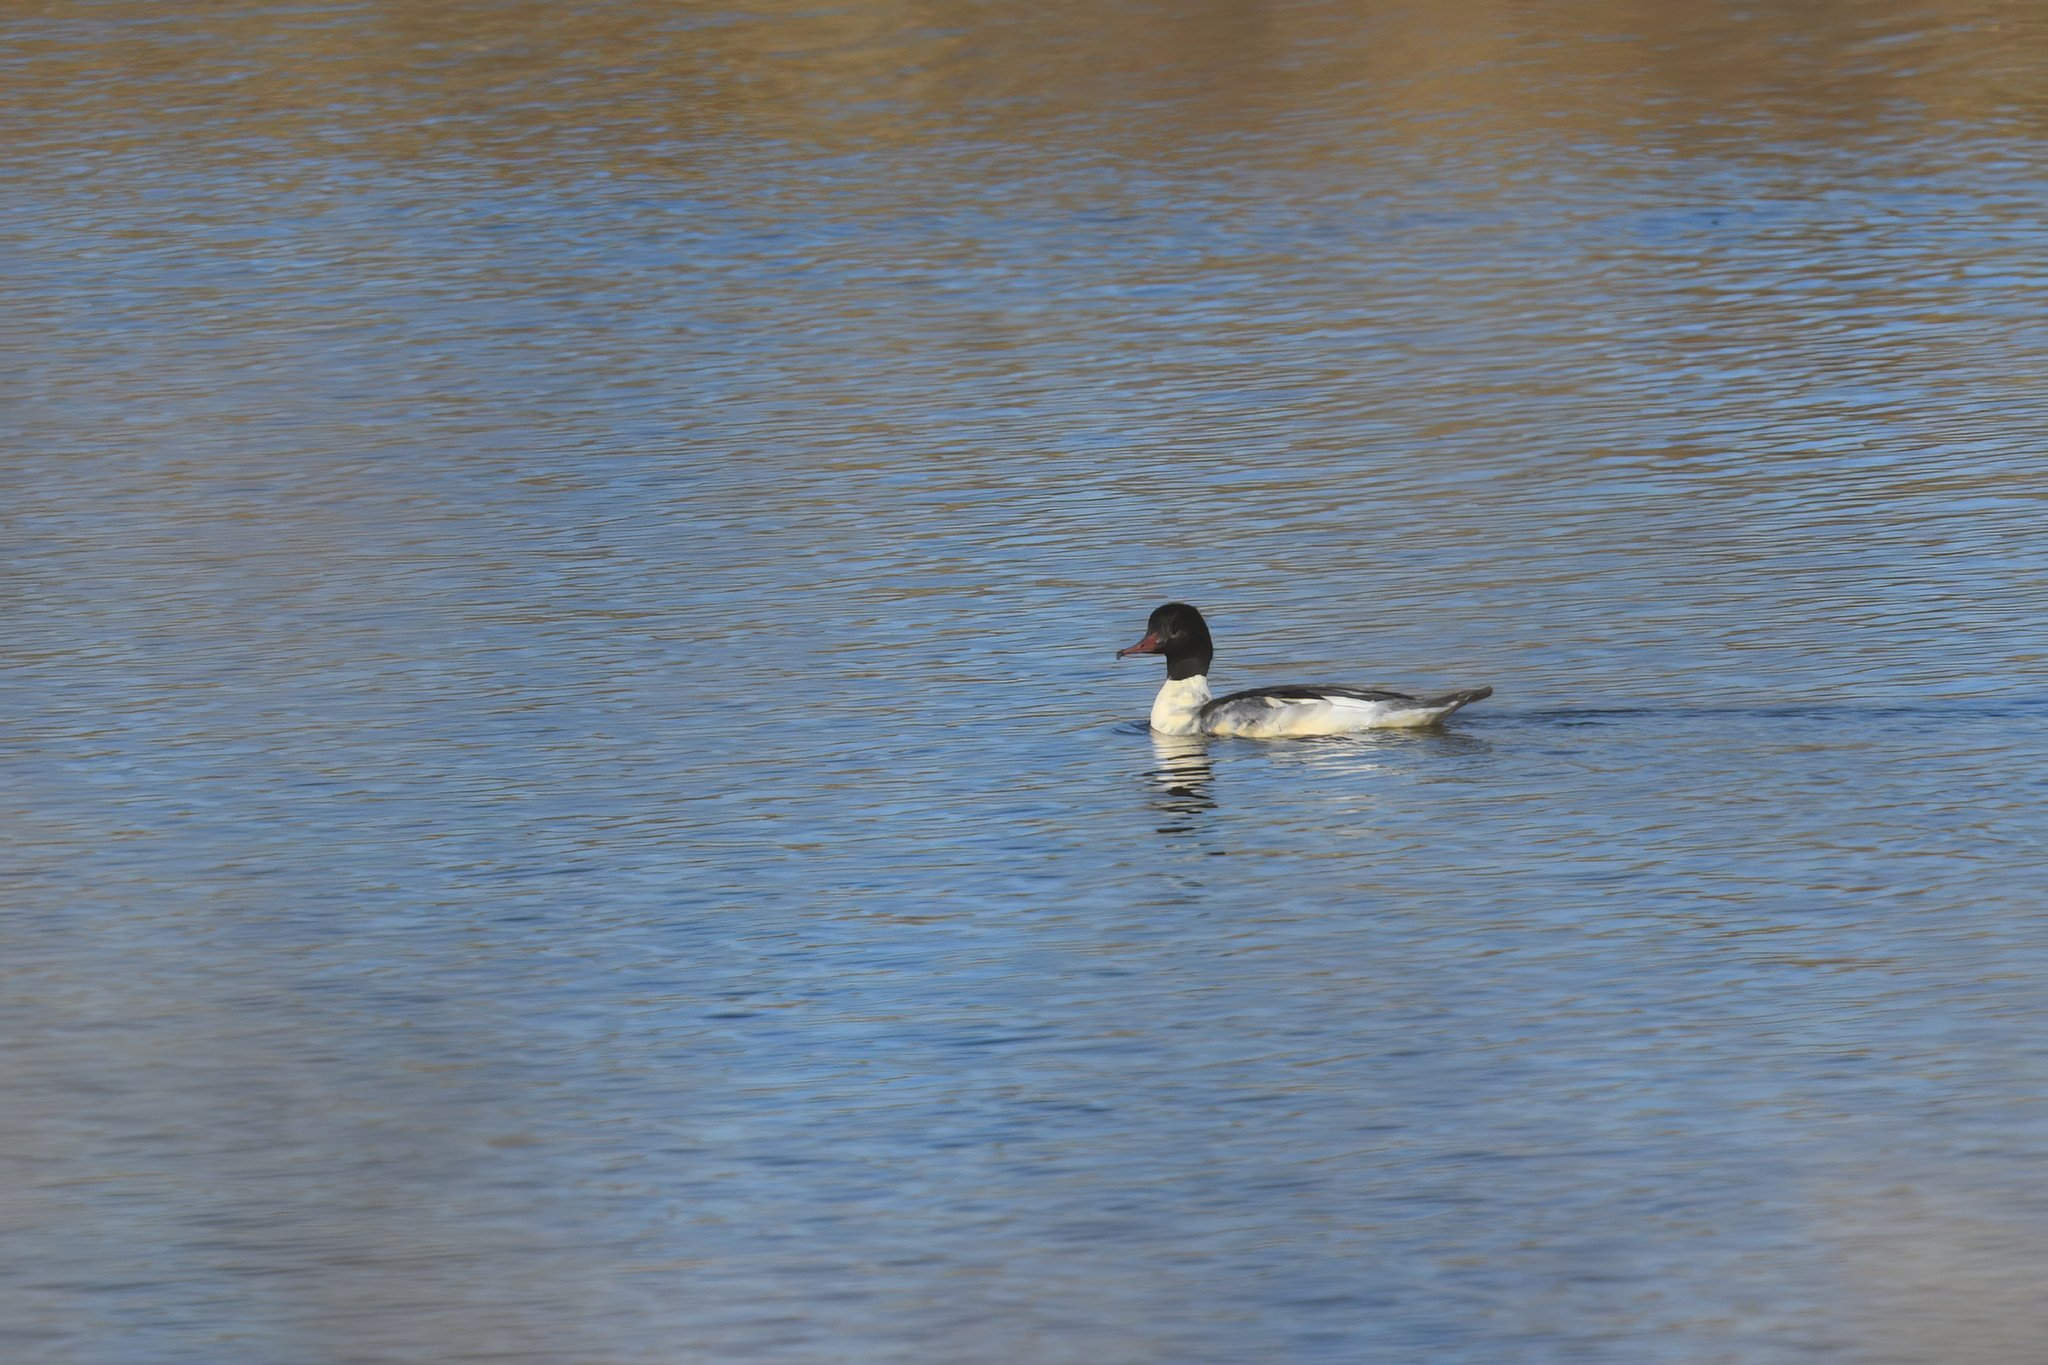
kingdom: Animalia
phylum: Chordata
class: Aves
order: Anseriformes
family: Anatidae
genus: Mergus
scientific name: Mergus merganser
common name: Common merganser
